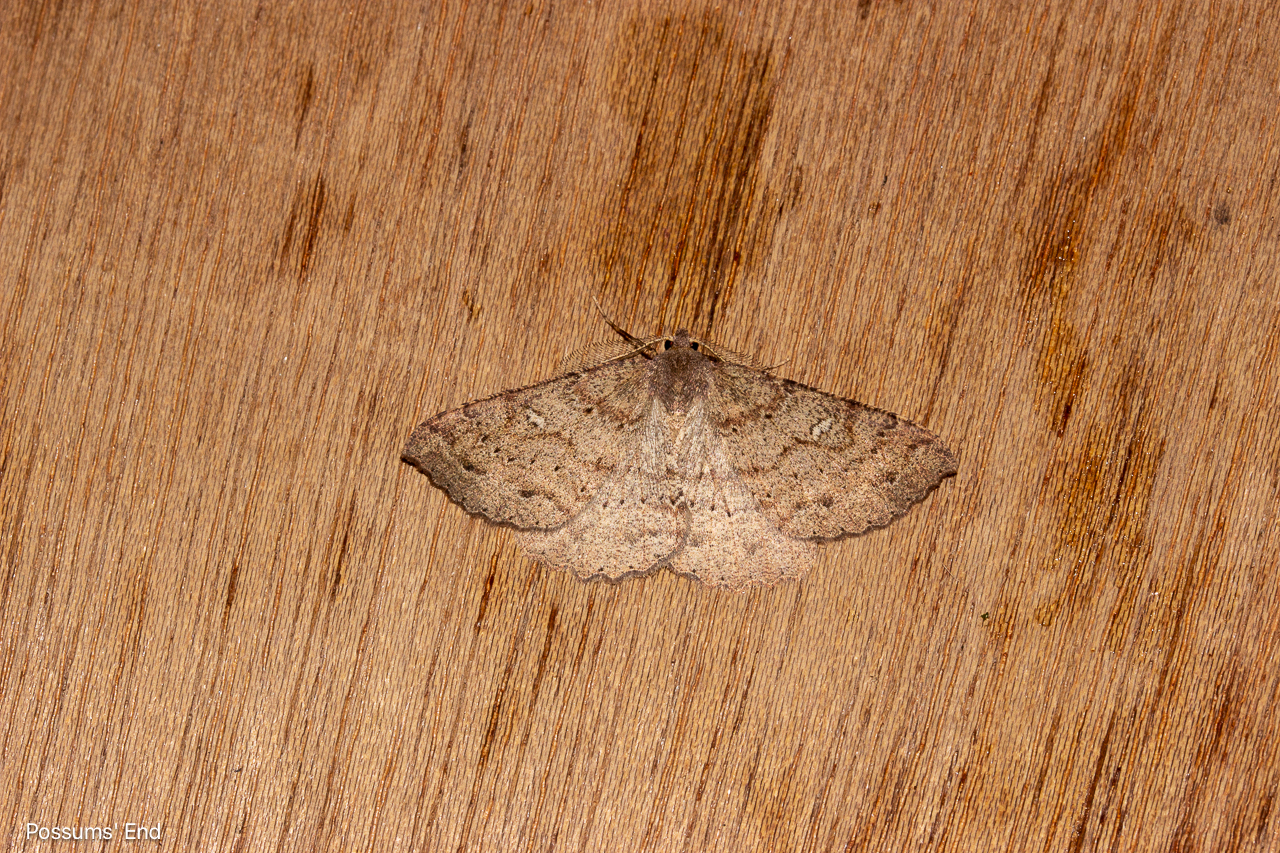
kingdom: Animalia
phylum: Arthropoda
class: Insecta
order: Lepidoptera
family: Geometridae
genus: Cleora
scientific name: Cleora scriptaria
